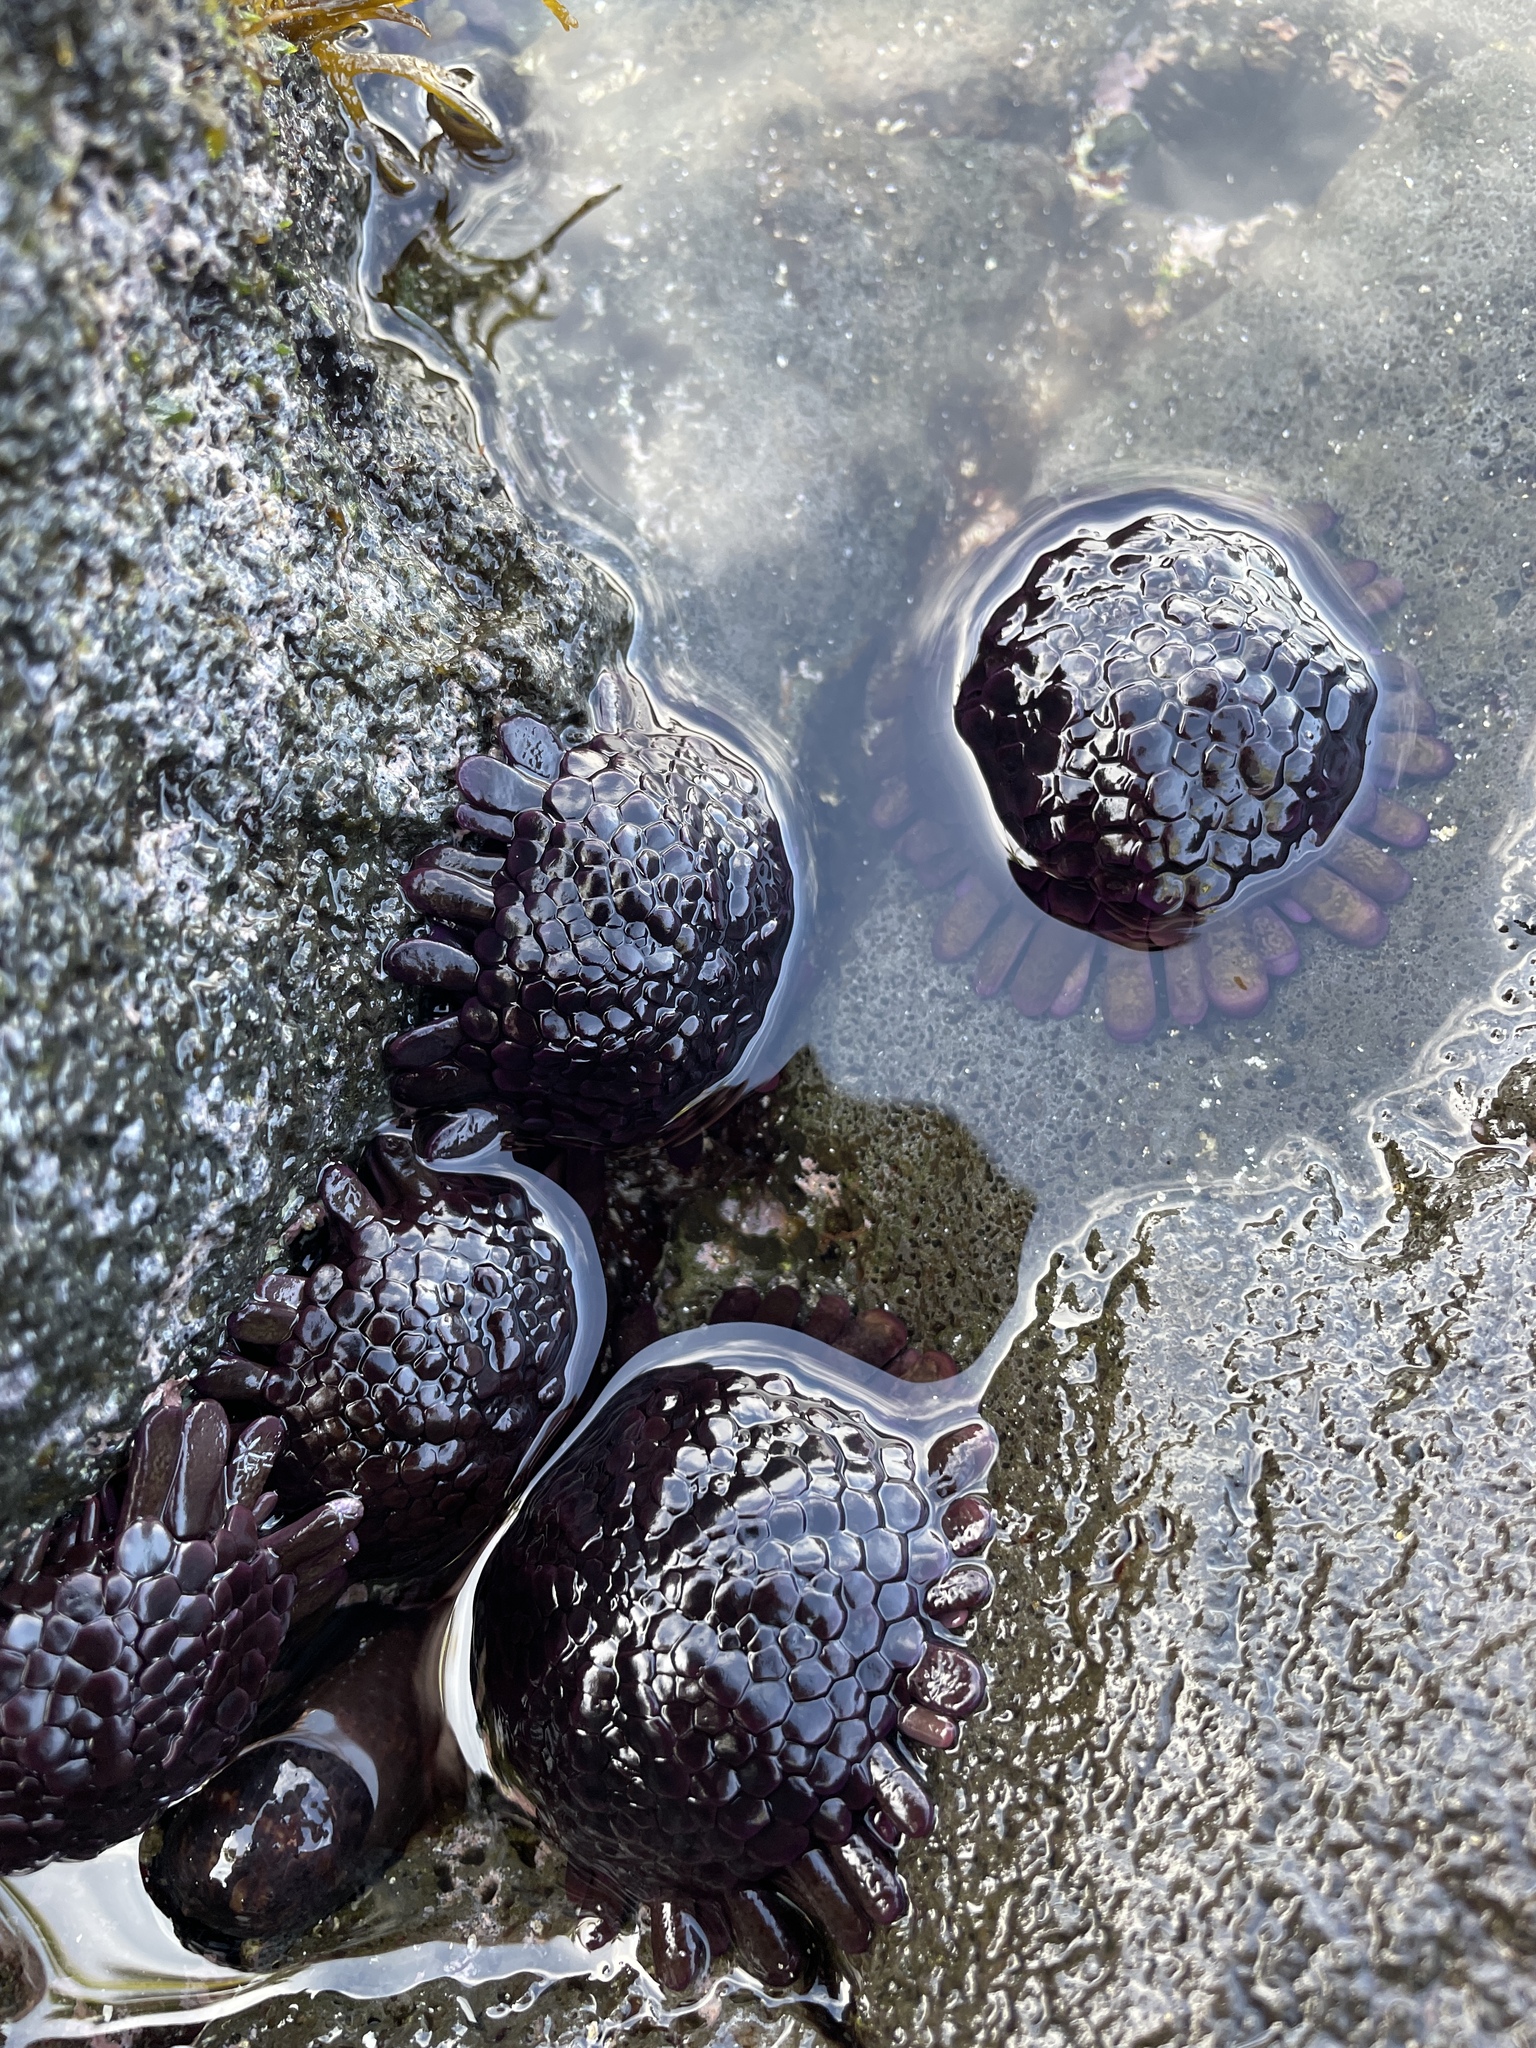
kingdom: Animalia
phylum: Echinodermata
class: Echinoidea
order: Camarodonta
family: Echinometridae
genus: Colobocentrotus
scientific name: Colobocentrotus atratus
